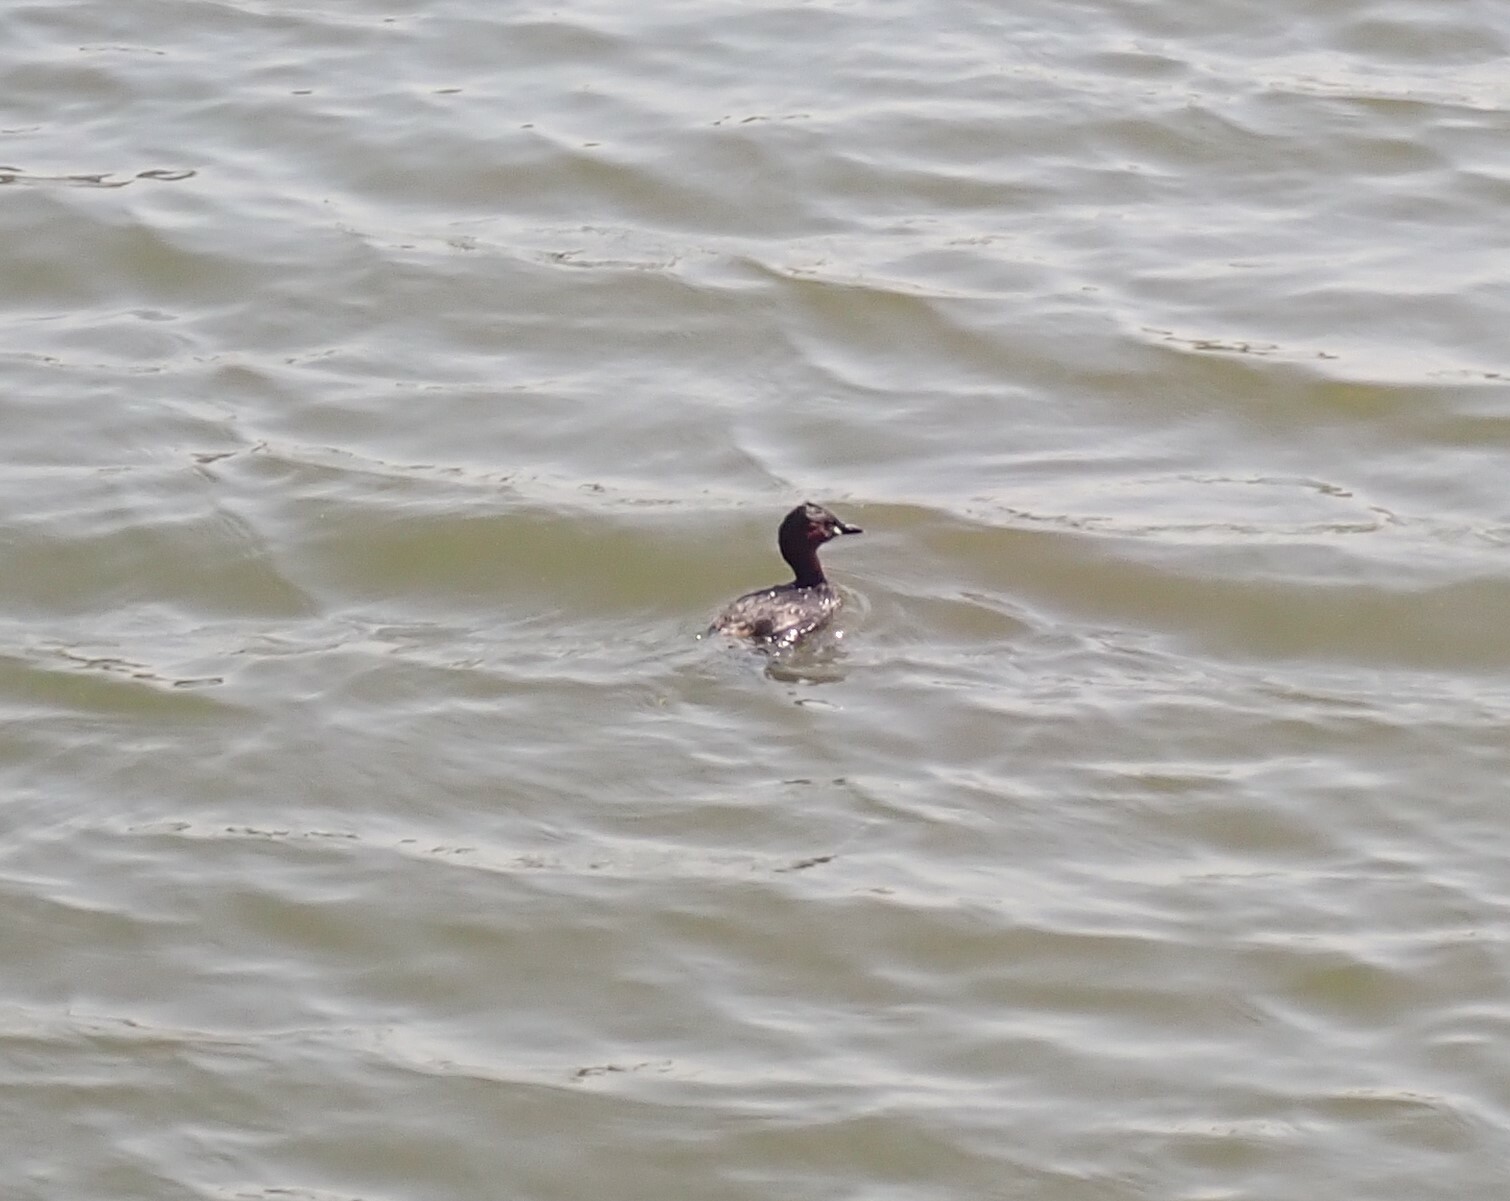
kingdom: Animalia
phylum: Chordata
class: Aves
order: Podicipediformes
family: Podicipedidae
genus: Tachybaptus
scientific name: Tachybaptus ruficollis
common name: Little grebe
